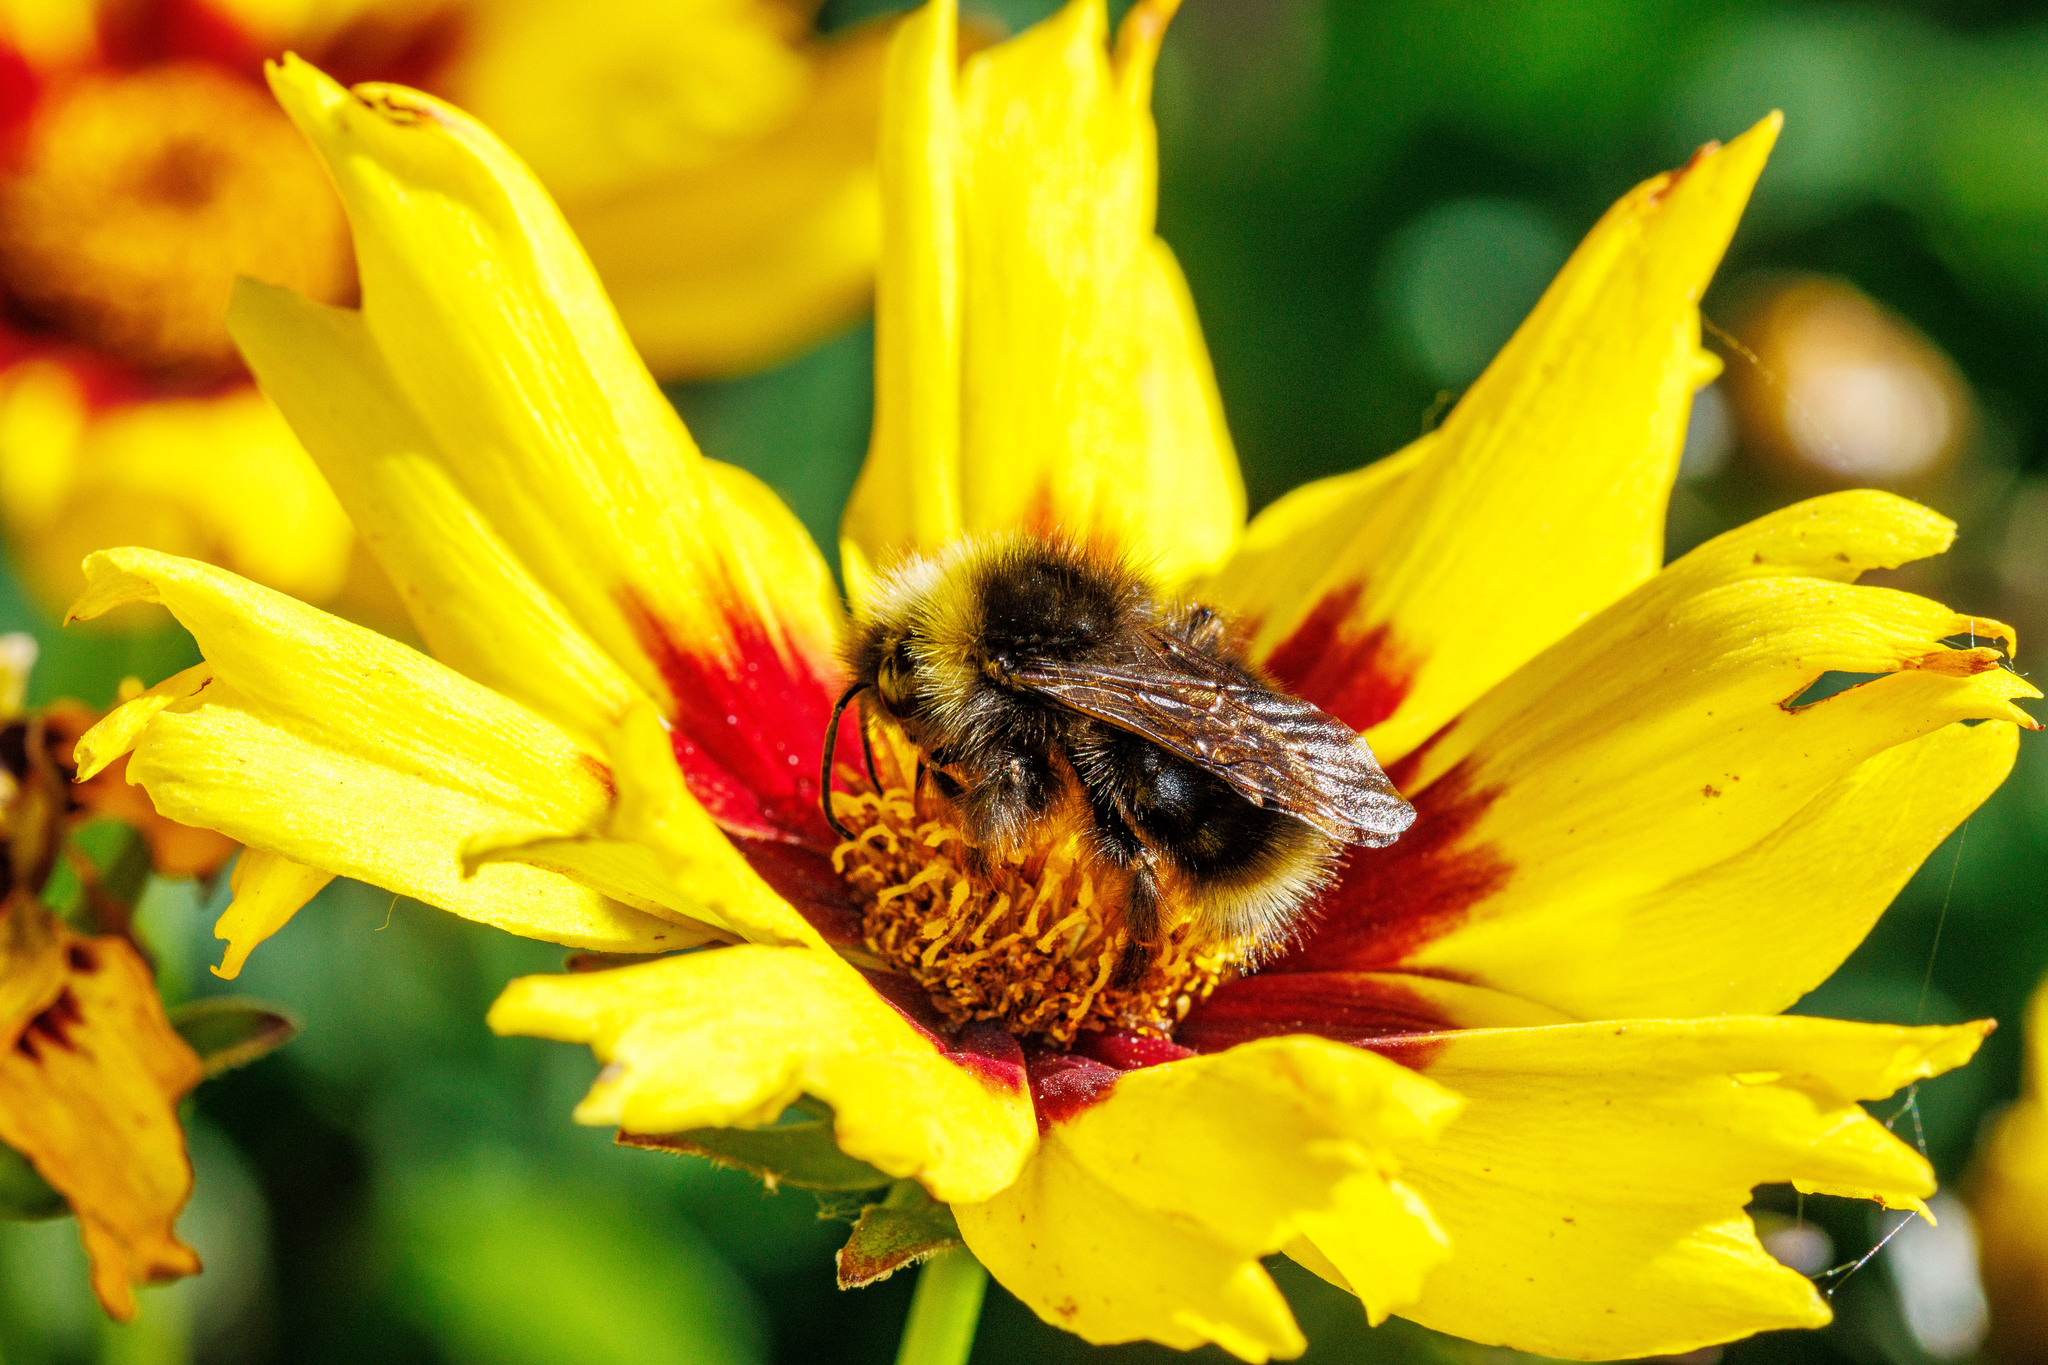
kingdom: Animalia
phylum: Arthropoda
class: Insecta
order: Hymenoptera
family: Apidae
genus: Bombus
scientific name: Bombus flavidus
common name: Fernald cuckoo bumble bee
